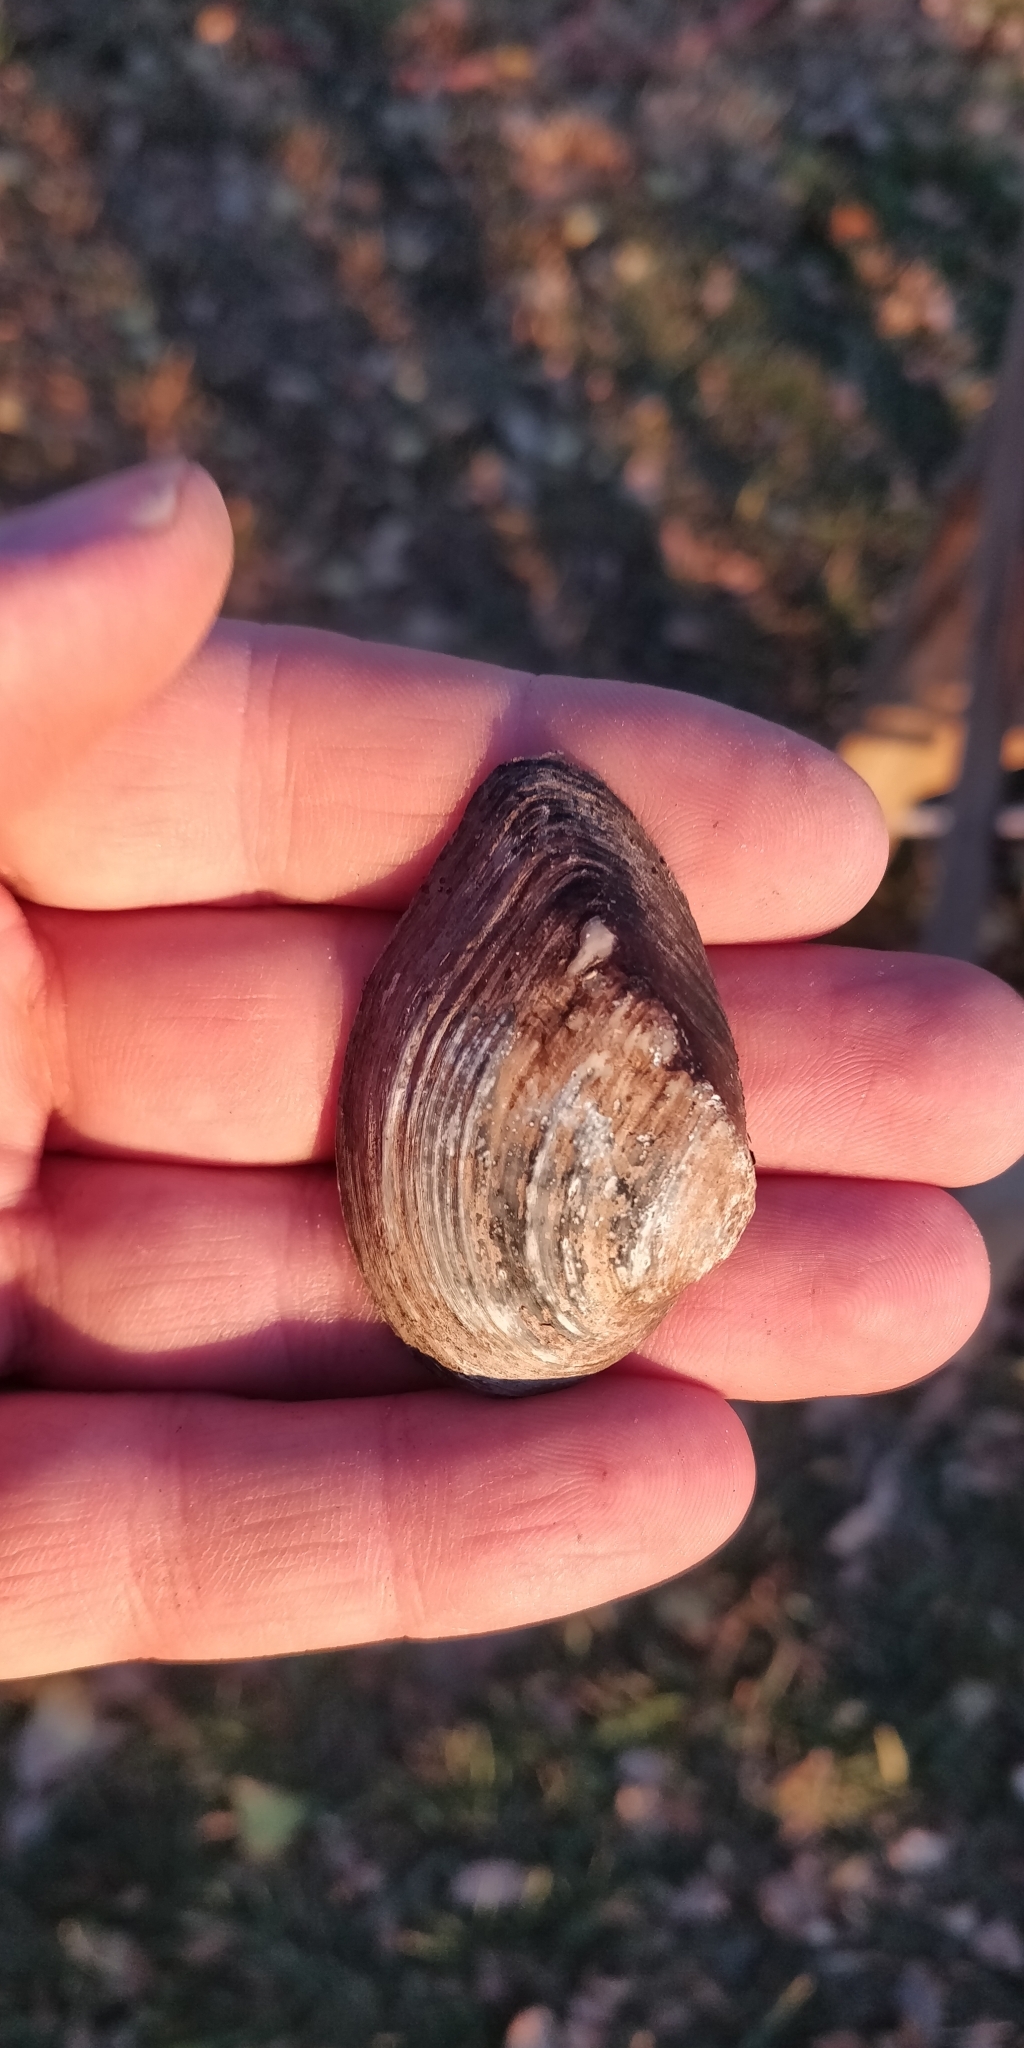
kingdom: Animalia
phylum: Mollusca
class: Bivalvia
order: Unionida
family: Unionidae
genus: Truncilla
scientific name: Truncilla truncata
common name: Deertoe
